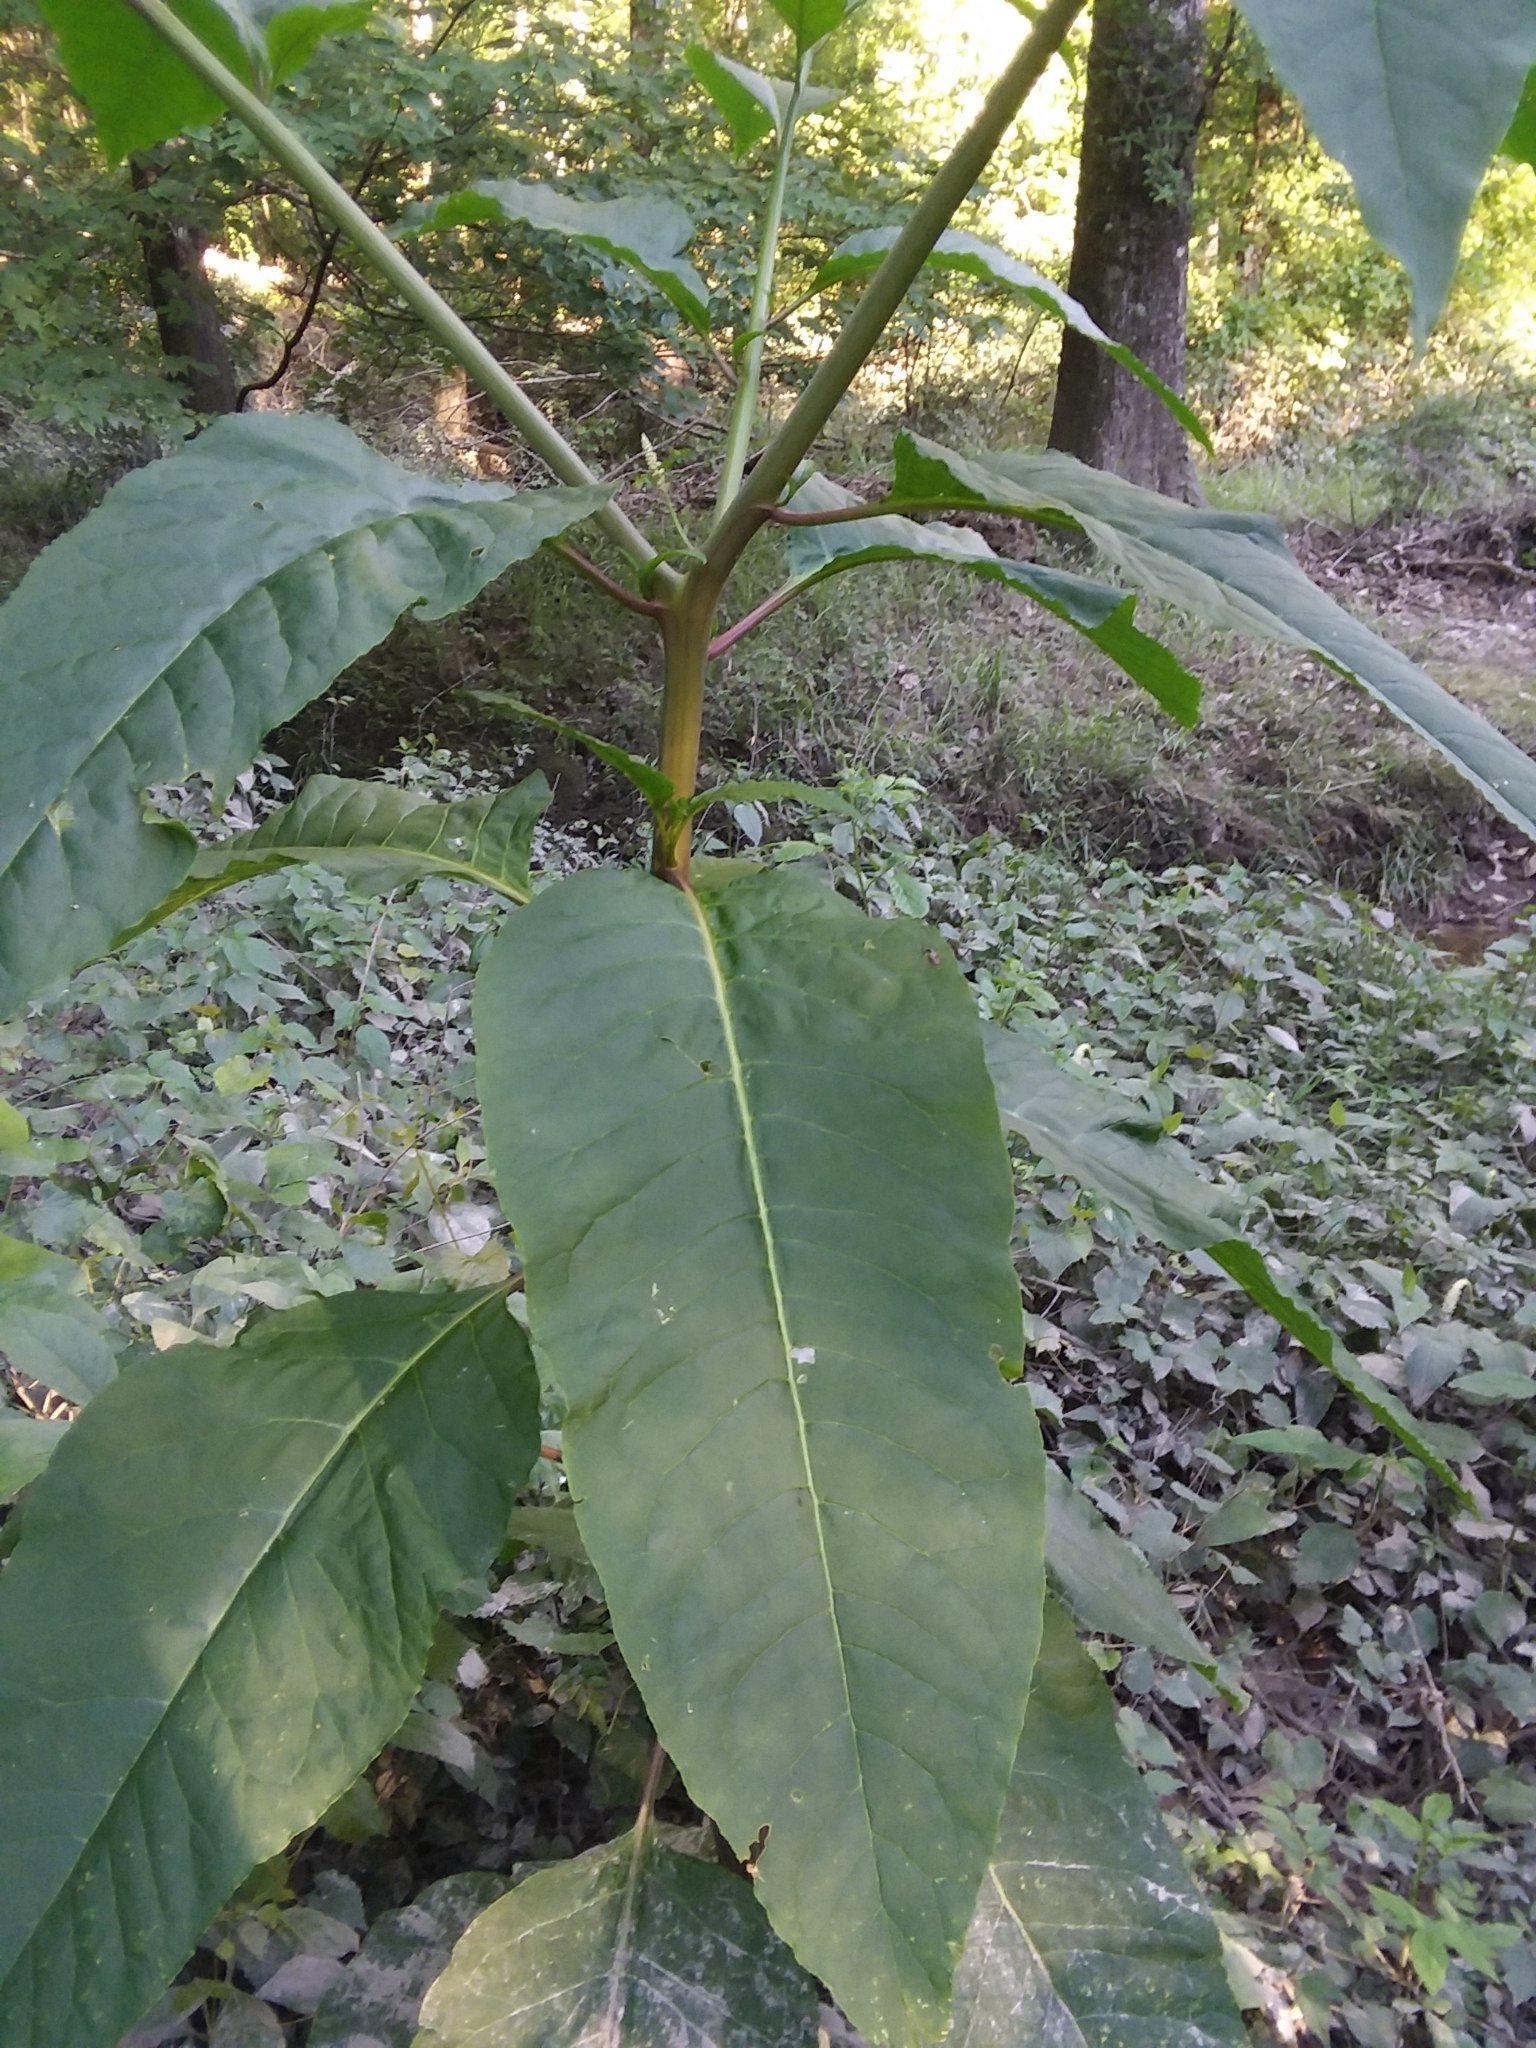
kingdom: Plantae
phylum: Tracheophyta
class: Magnoliopsida
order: Caryophyllales
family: Phytolaccaceae
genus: Phytolacca
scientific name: Phytolacca americana
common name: American pokeweed
